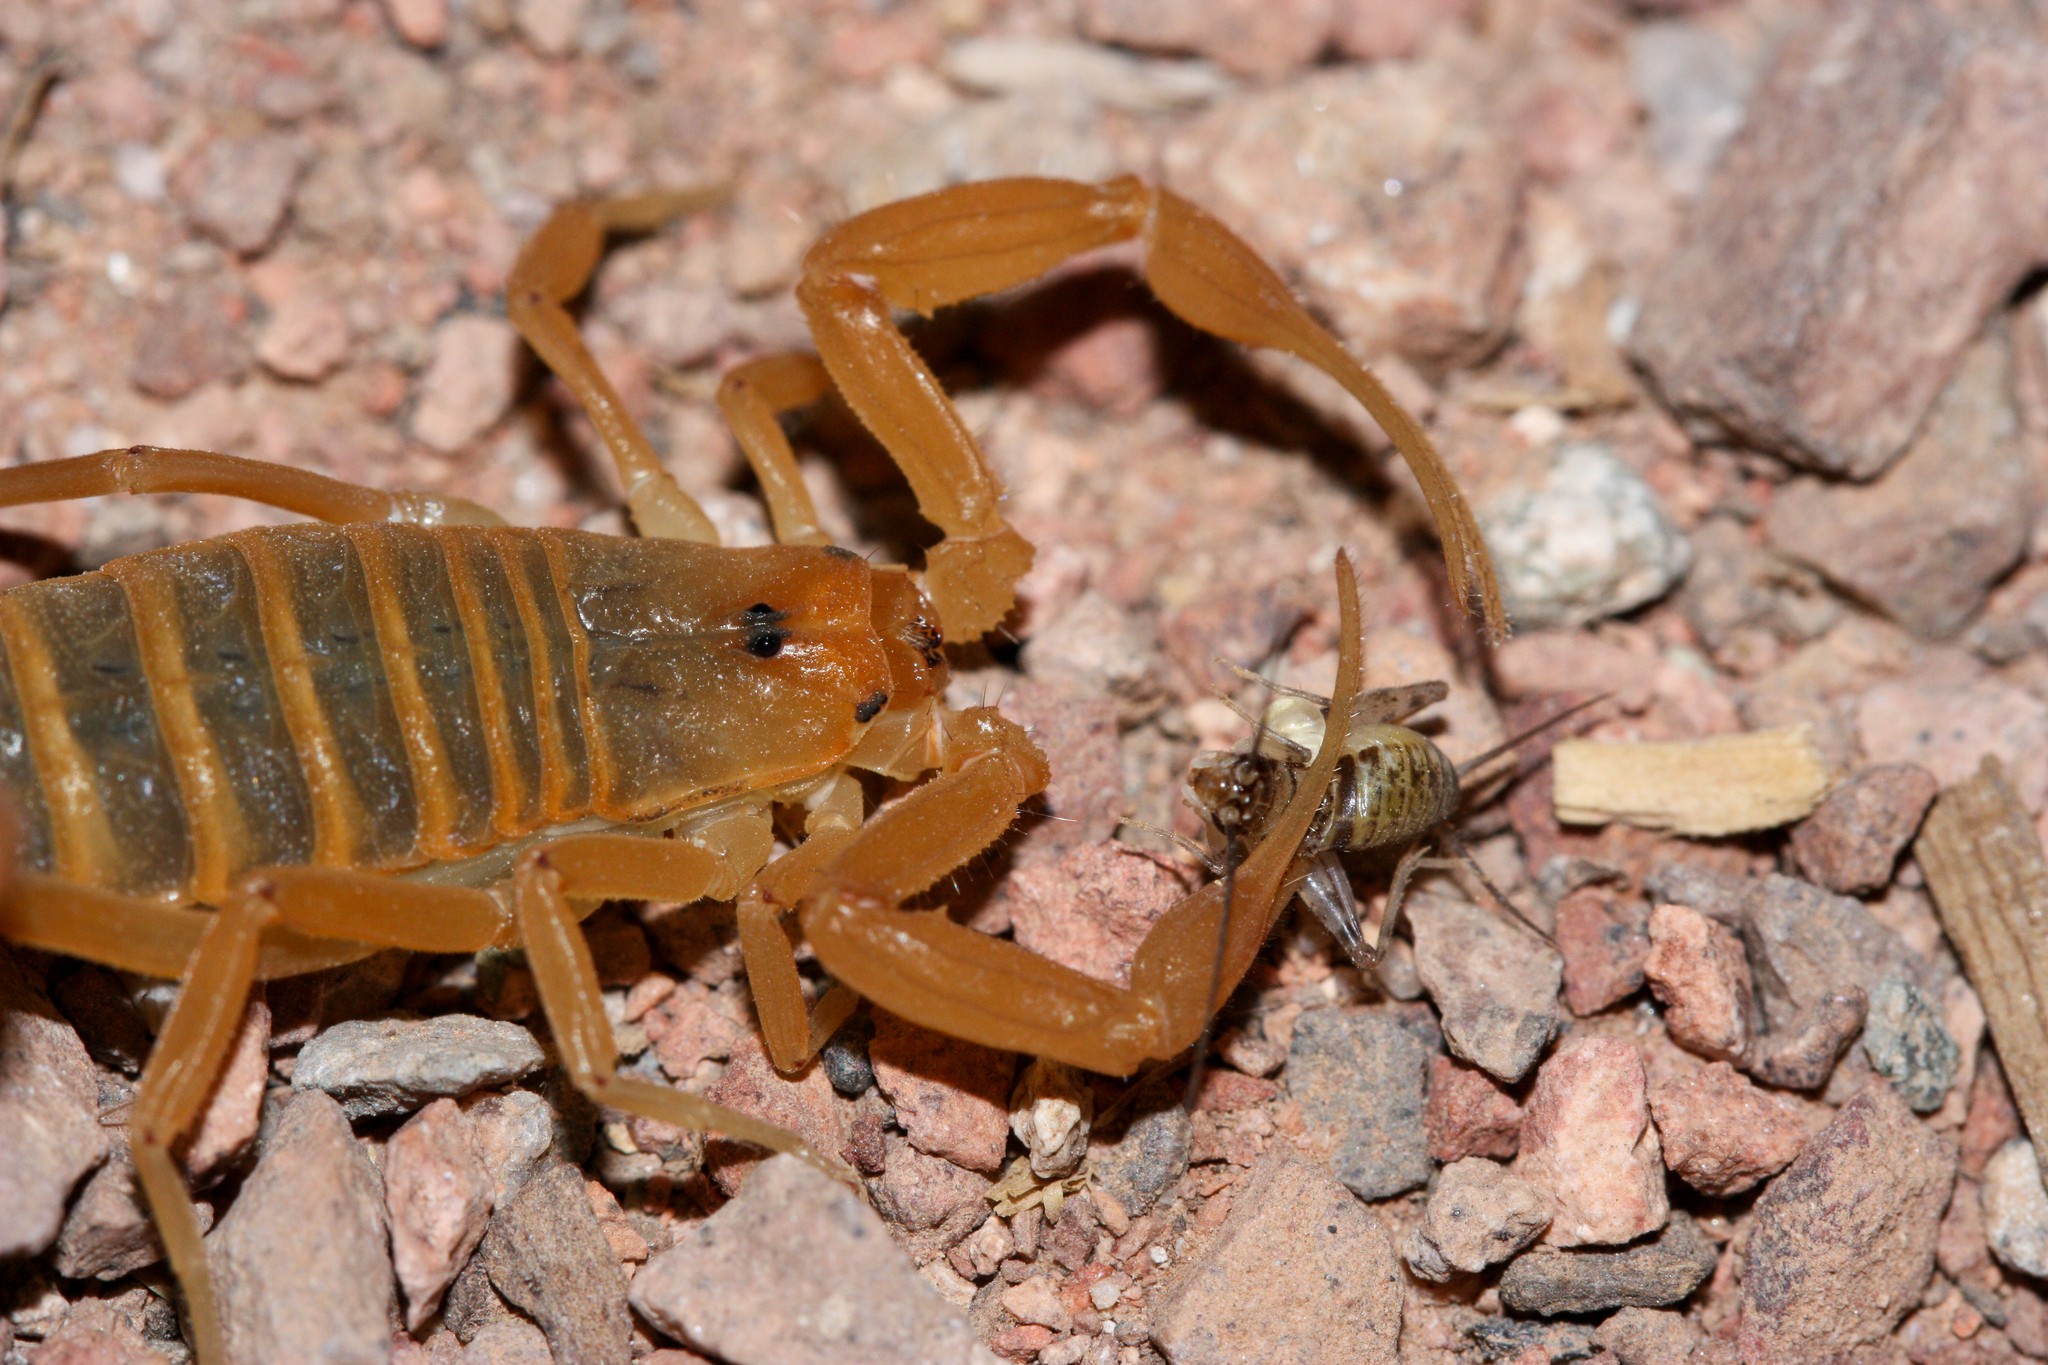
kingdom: Animalia
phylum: Arthropoda
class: Arachnida
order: Scorpiones
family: Buthidae
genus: Centruroides
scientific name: Centruroides sculpturatus
